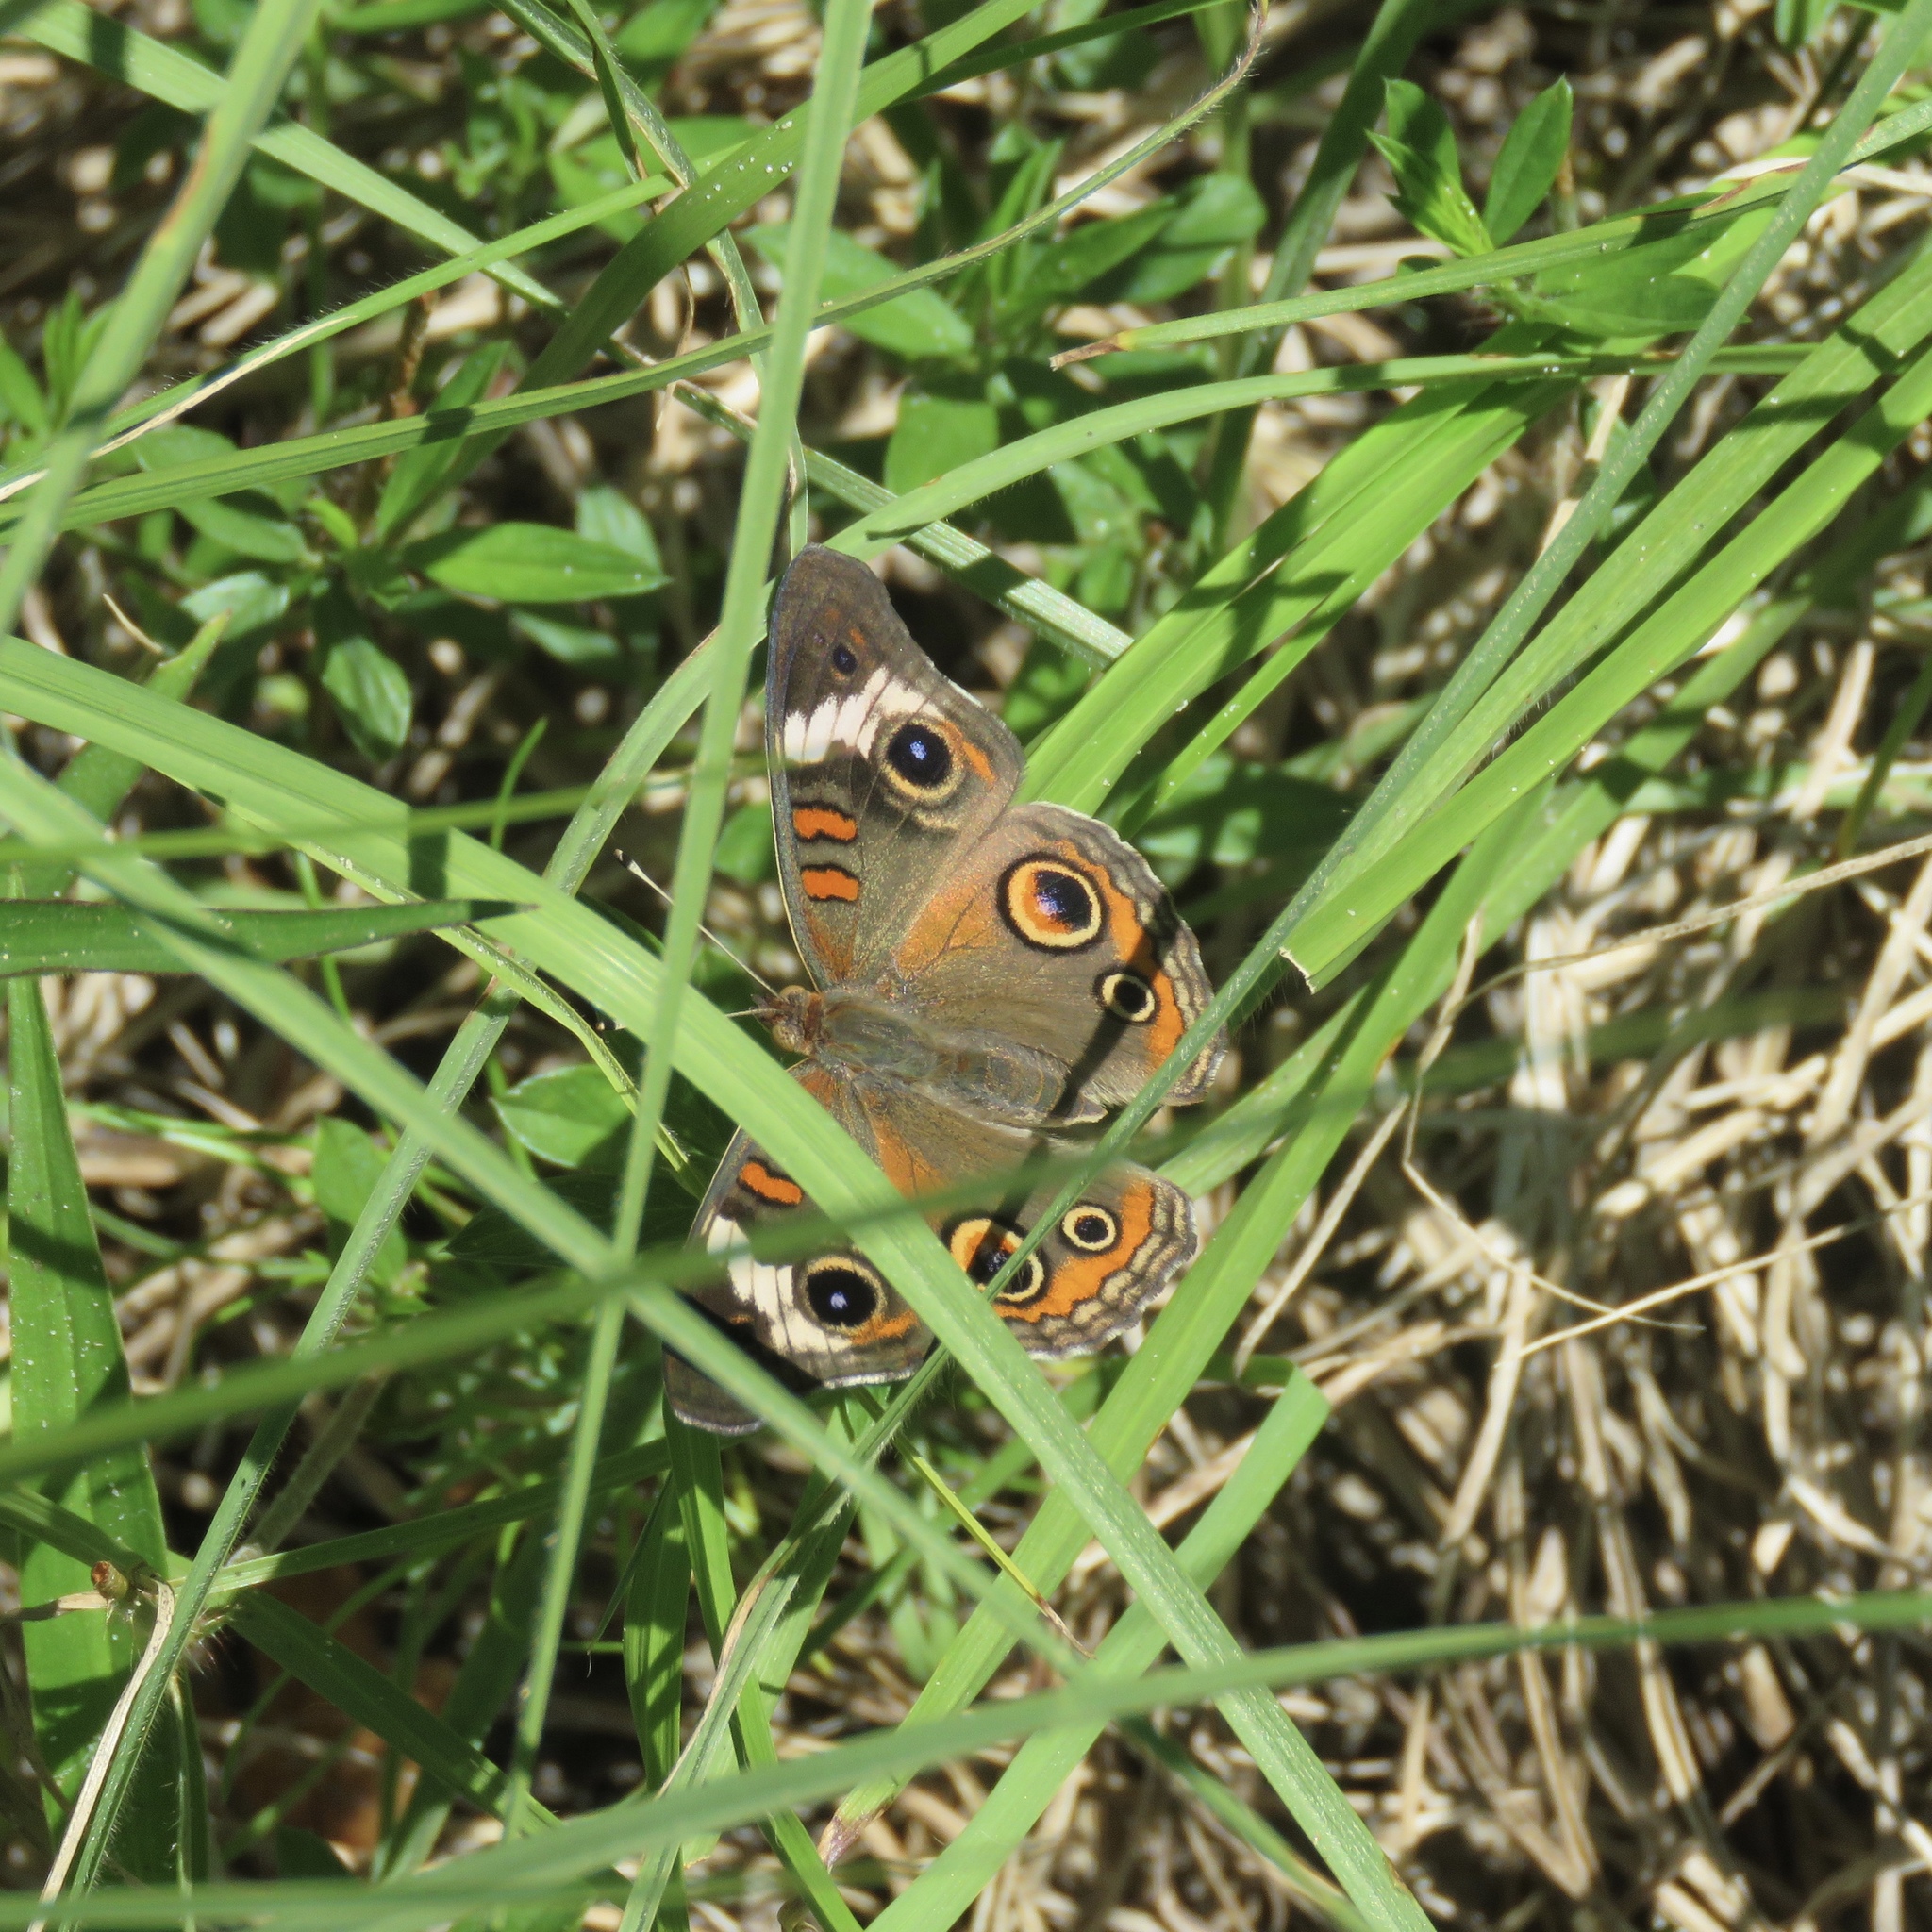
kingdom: Animalia
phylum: Arthropoda
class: Insecta
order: Lepidoptera
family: Nymphalidae
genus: Junonia
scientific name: Junonia coenia
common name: Common buckeye
